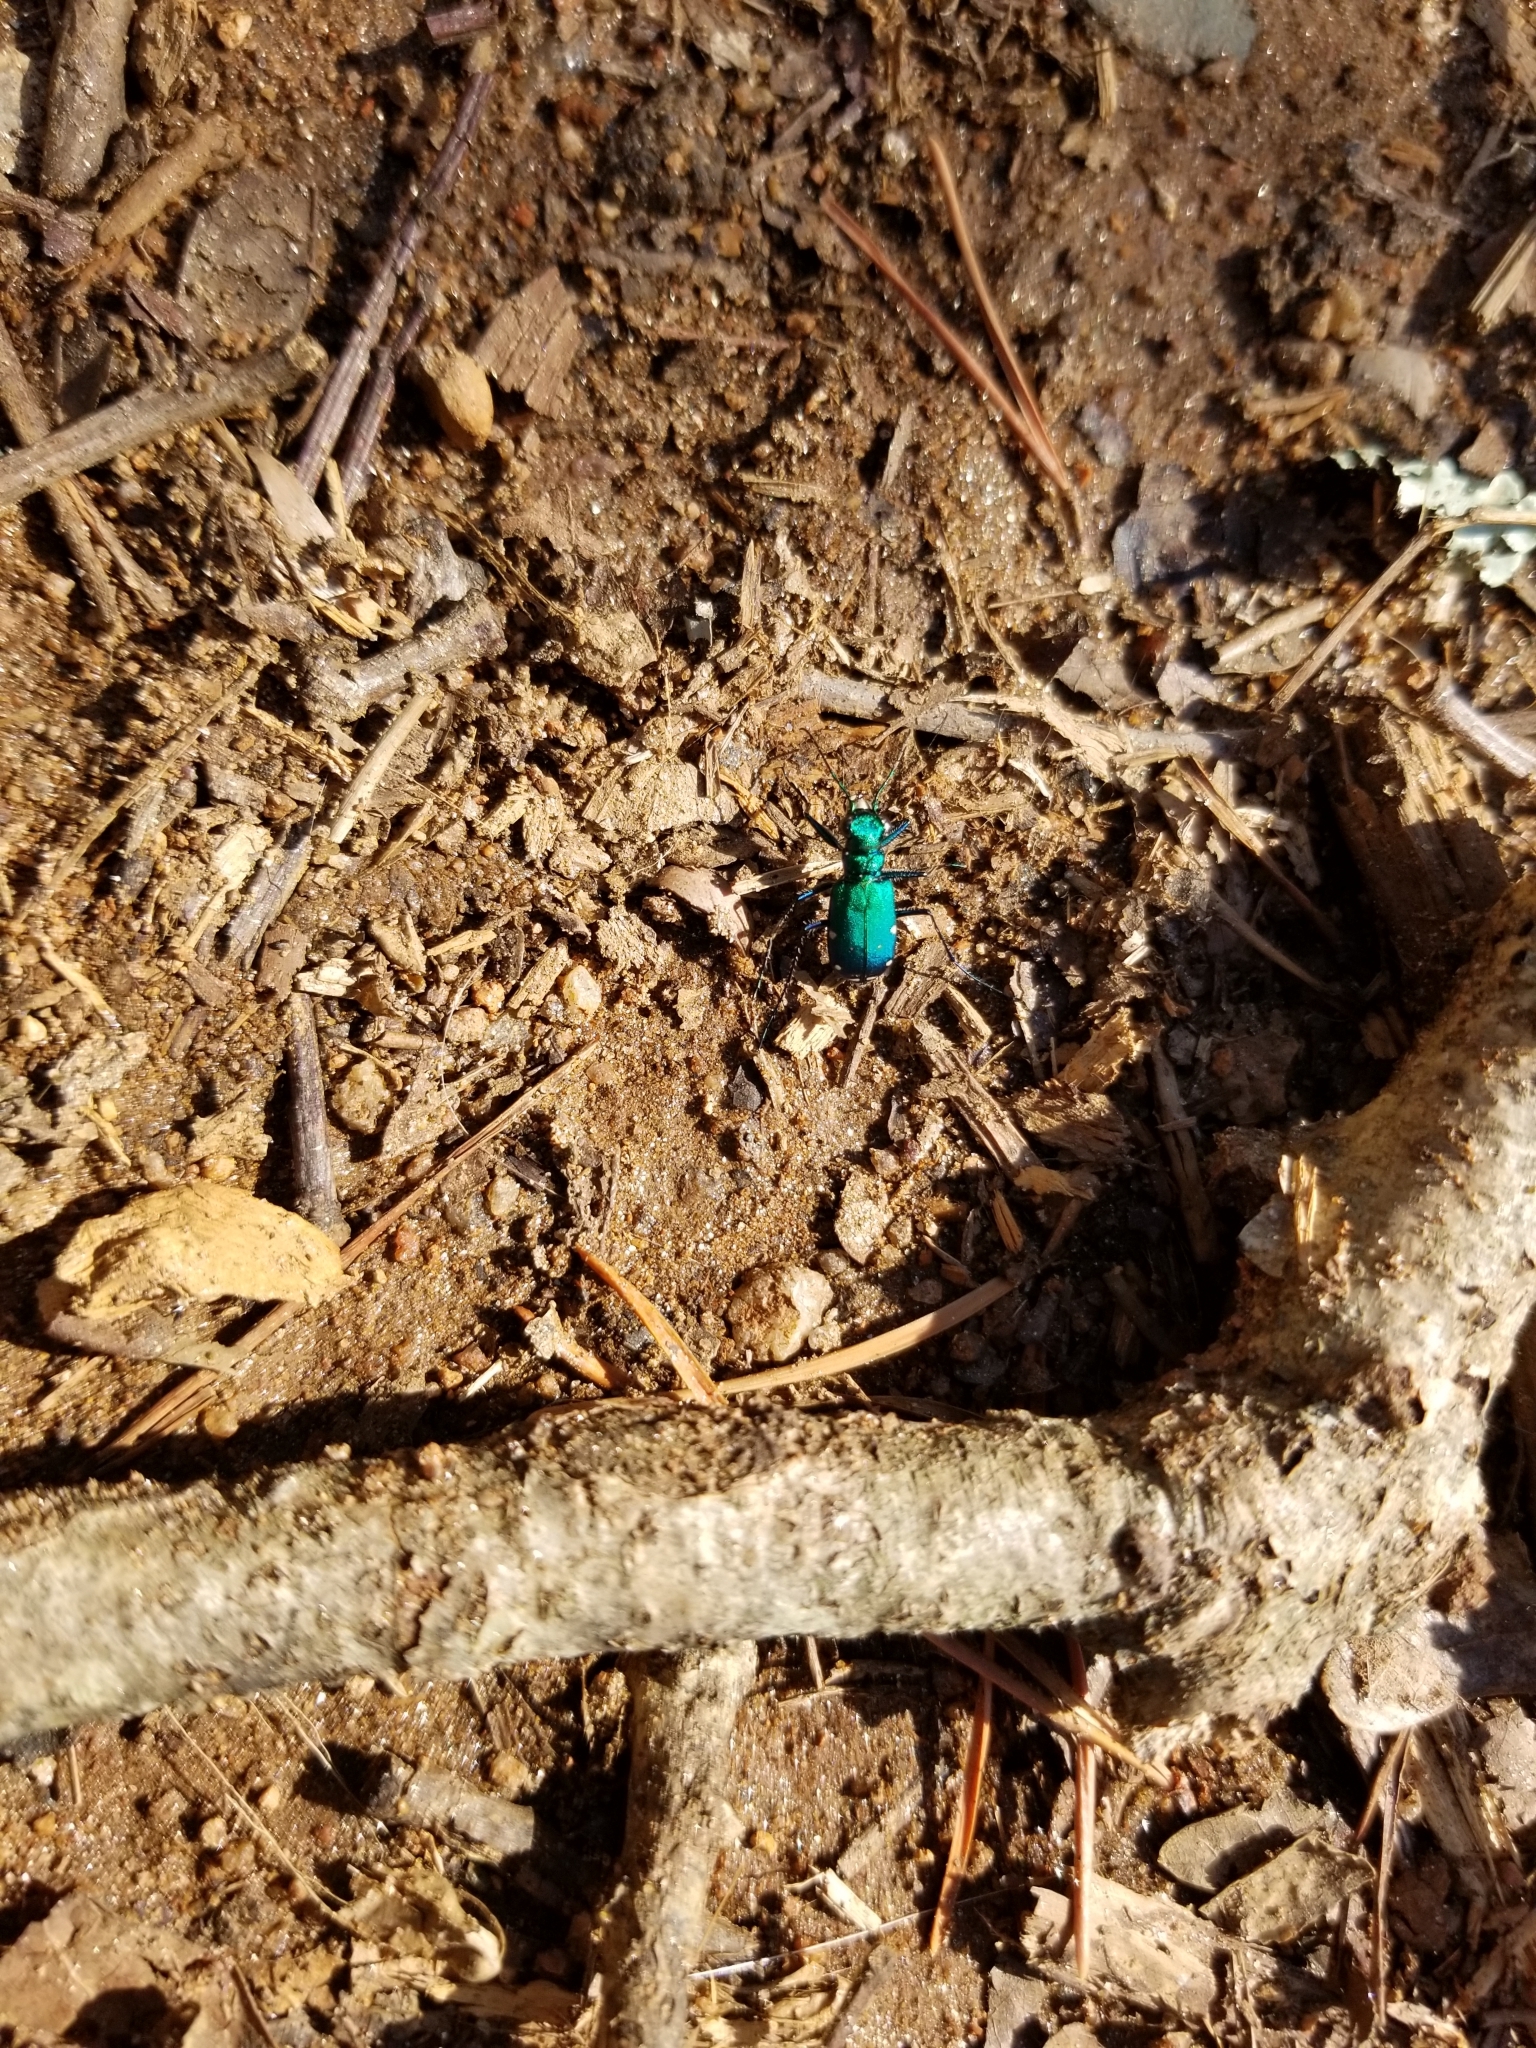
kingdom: Animalia
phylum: Arthropoda
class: Insecta
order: Coleoptera
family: Carabidae
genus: Cicindela
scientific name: Cicindela sexguttata
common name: Six-spotted tiger beetle
